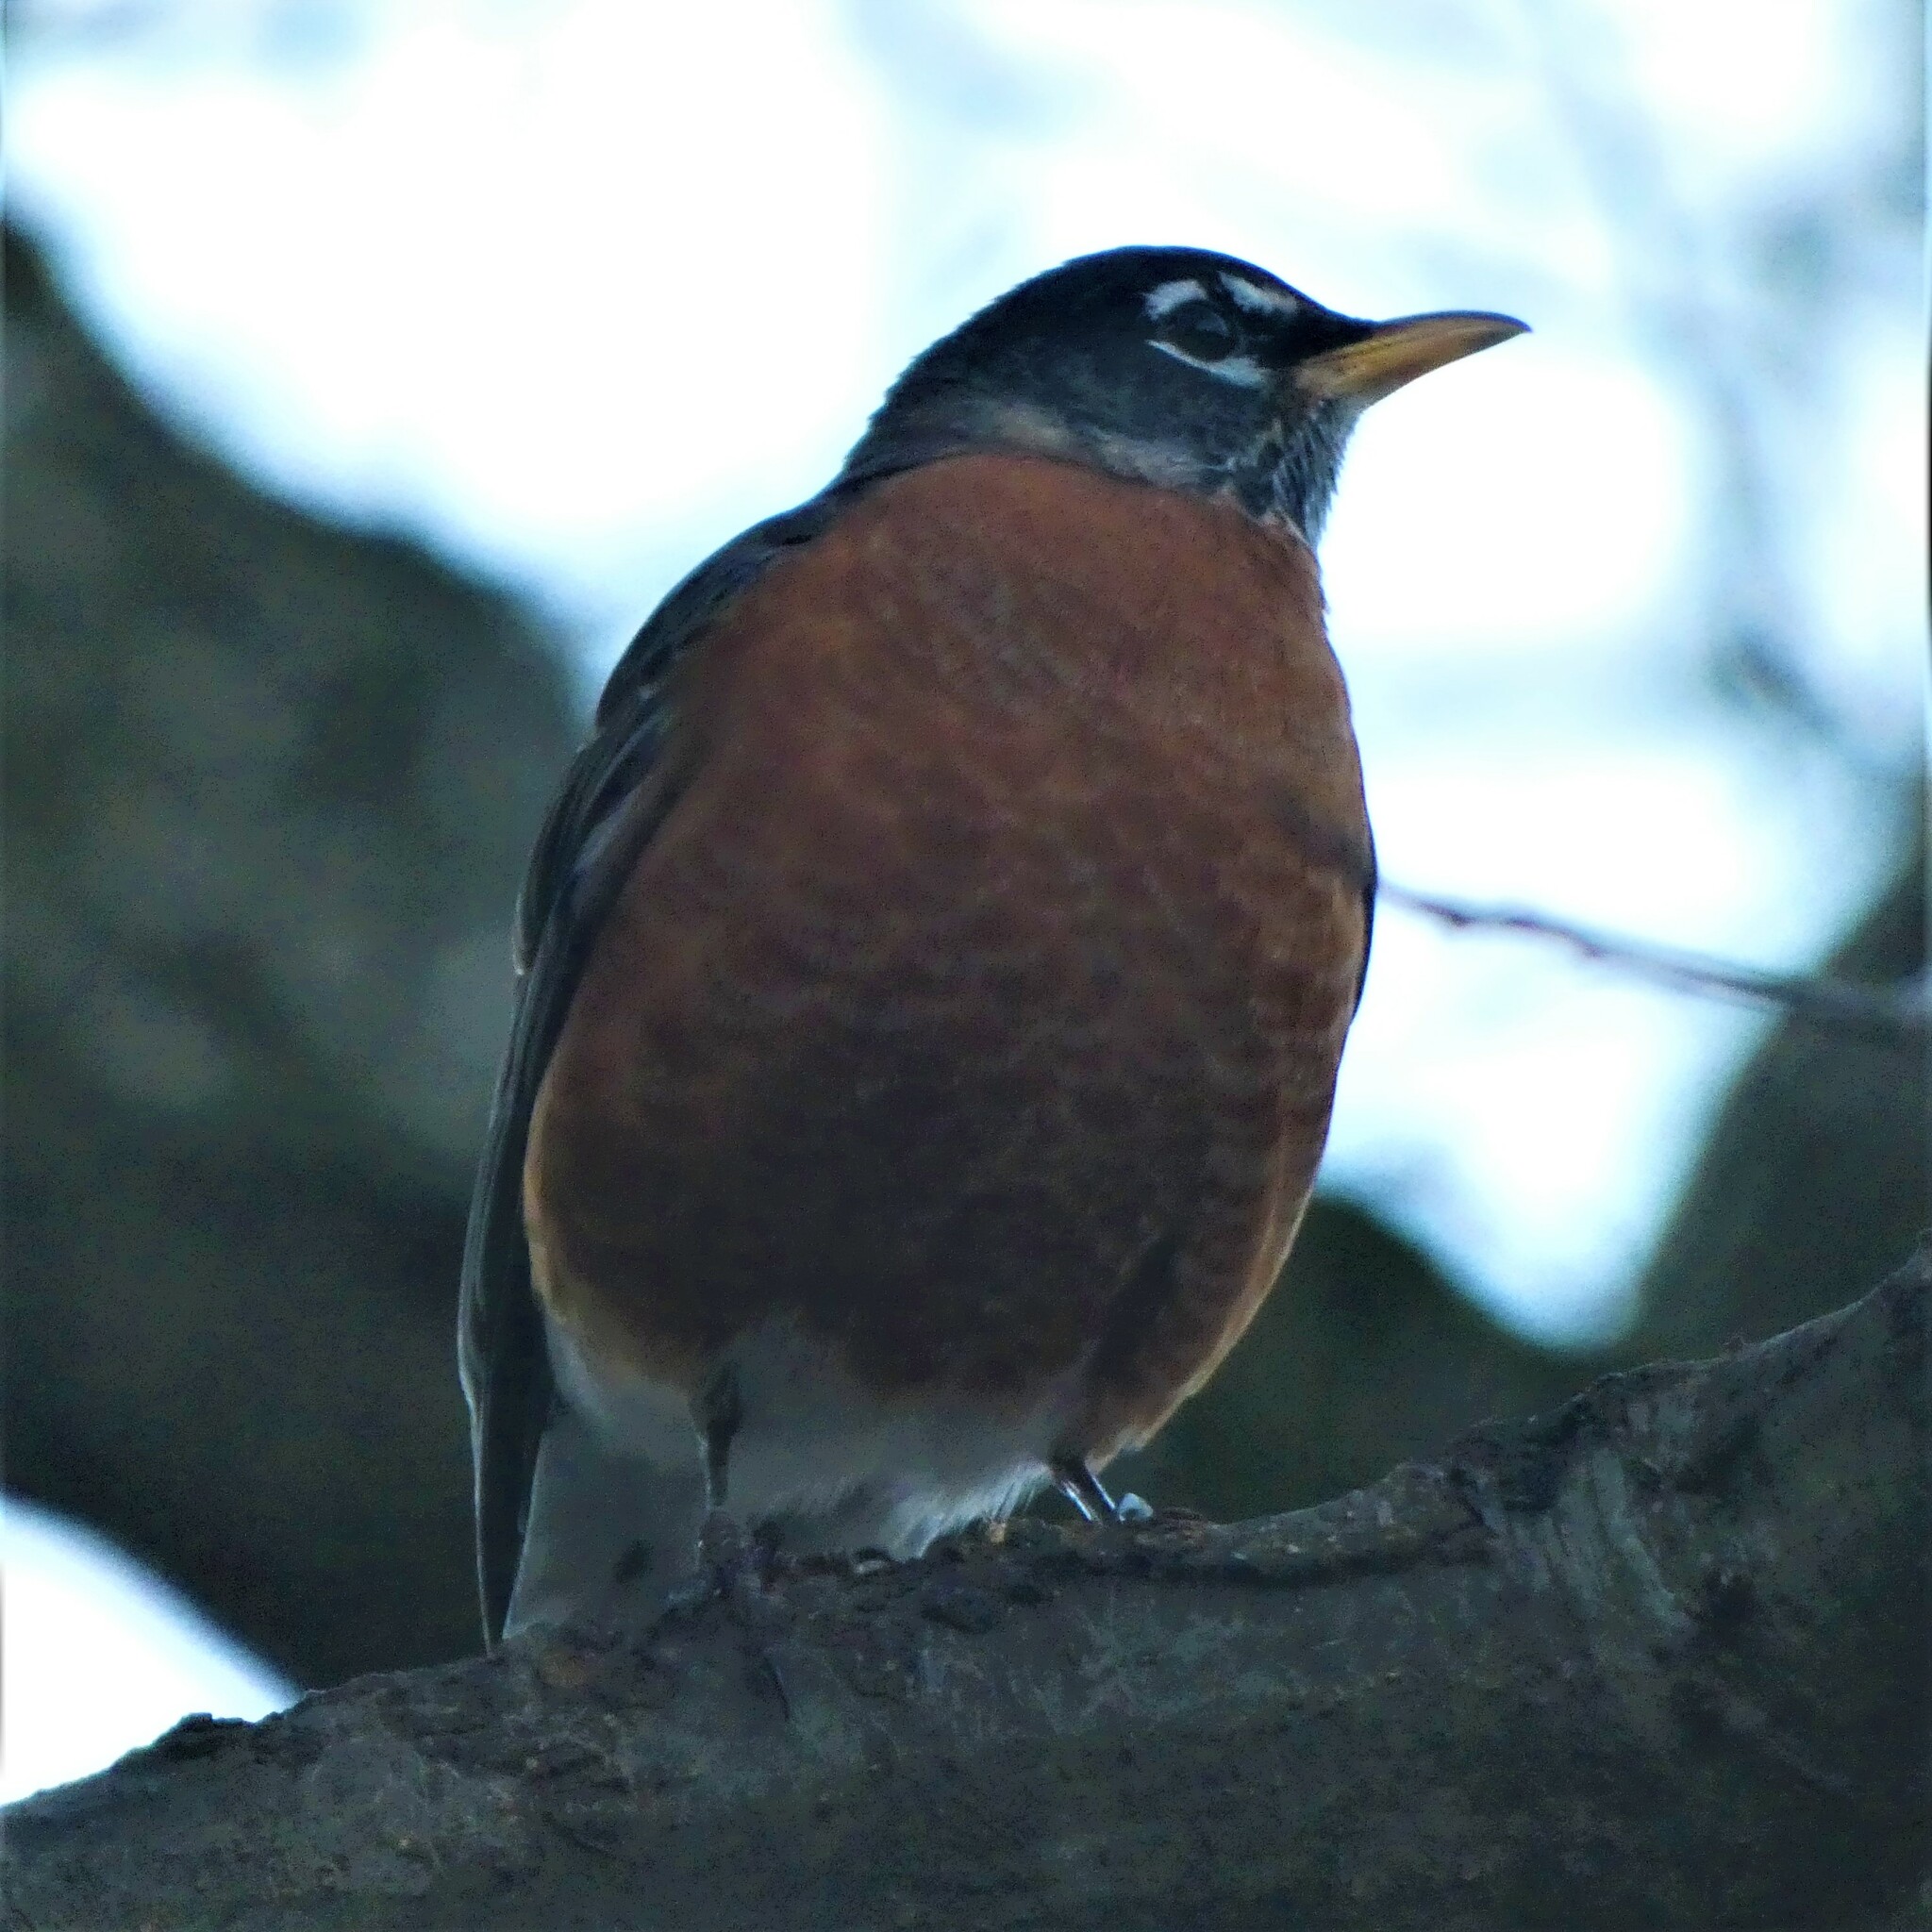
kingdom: Animalia
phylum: Chordata
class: Aves
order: Passeriformes
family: Turdidae
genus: Turdus
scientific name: Turdus migratorius
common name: American robin
